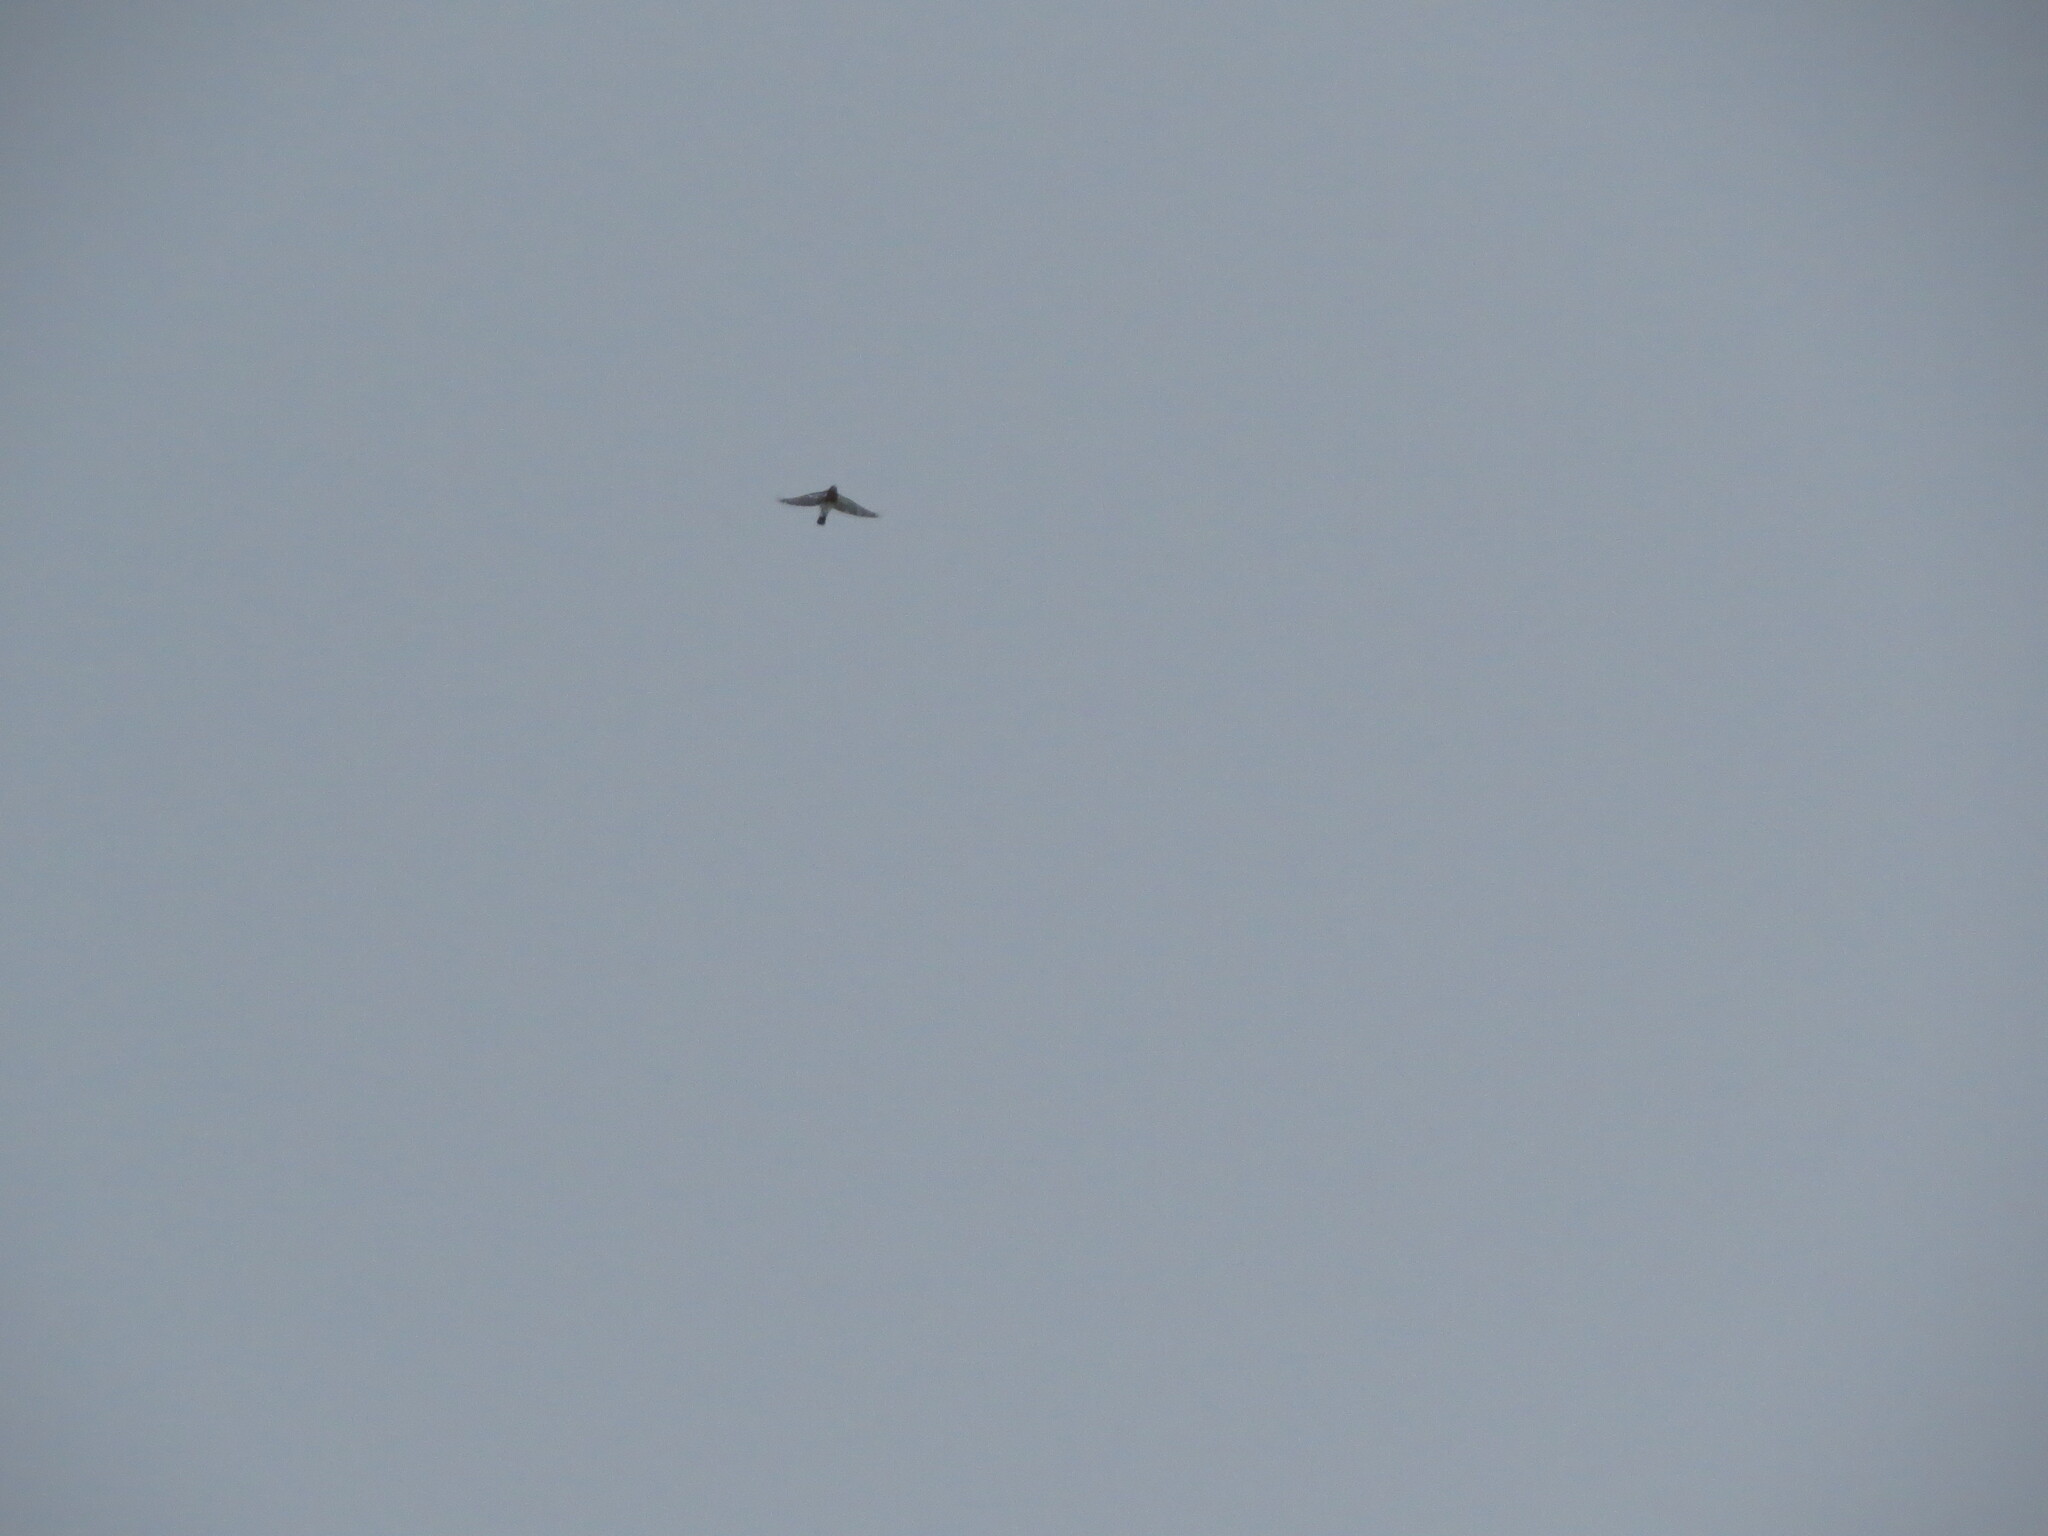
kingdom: Animalia
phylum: Chordata
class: Aves
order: Passeriformes
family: Turdidae
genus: Turdus
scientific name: Turdus pilaris
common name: Fieldfare
